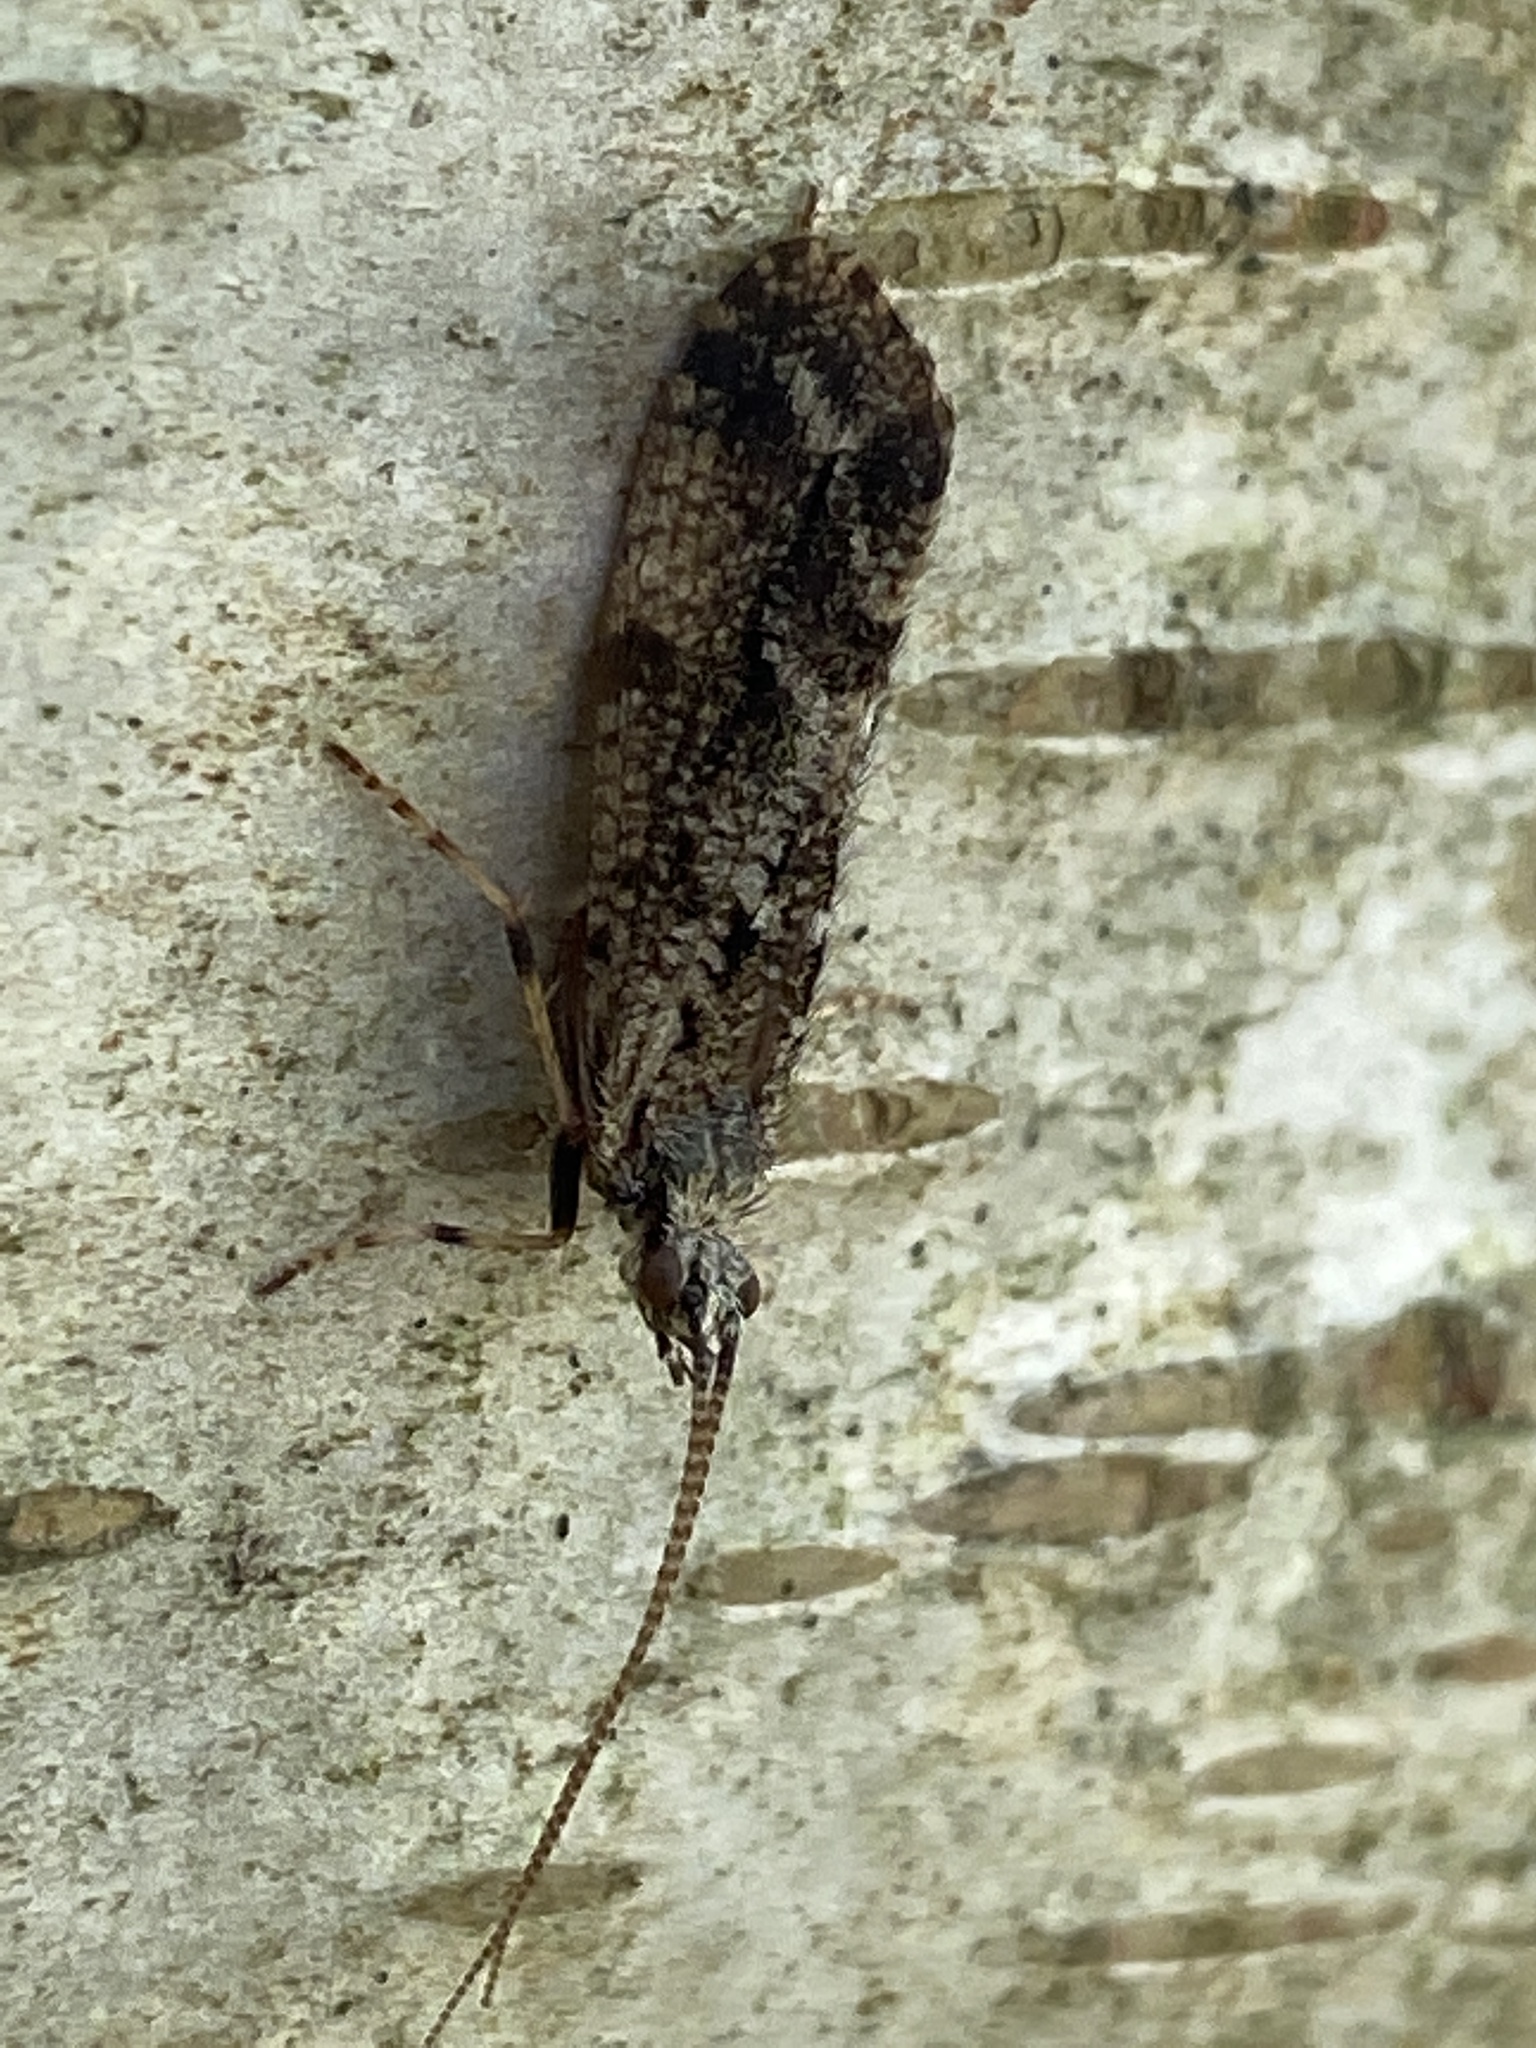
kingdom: Animalia
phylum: Arthropoda
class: Insecta
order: Trichoptera
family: Phryganeidae
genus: Trichostegia
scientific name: Trichostegia minor
